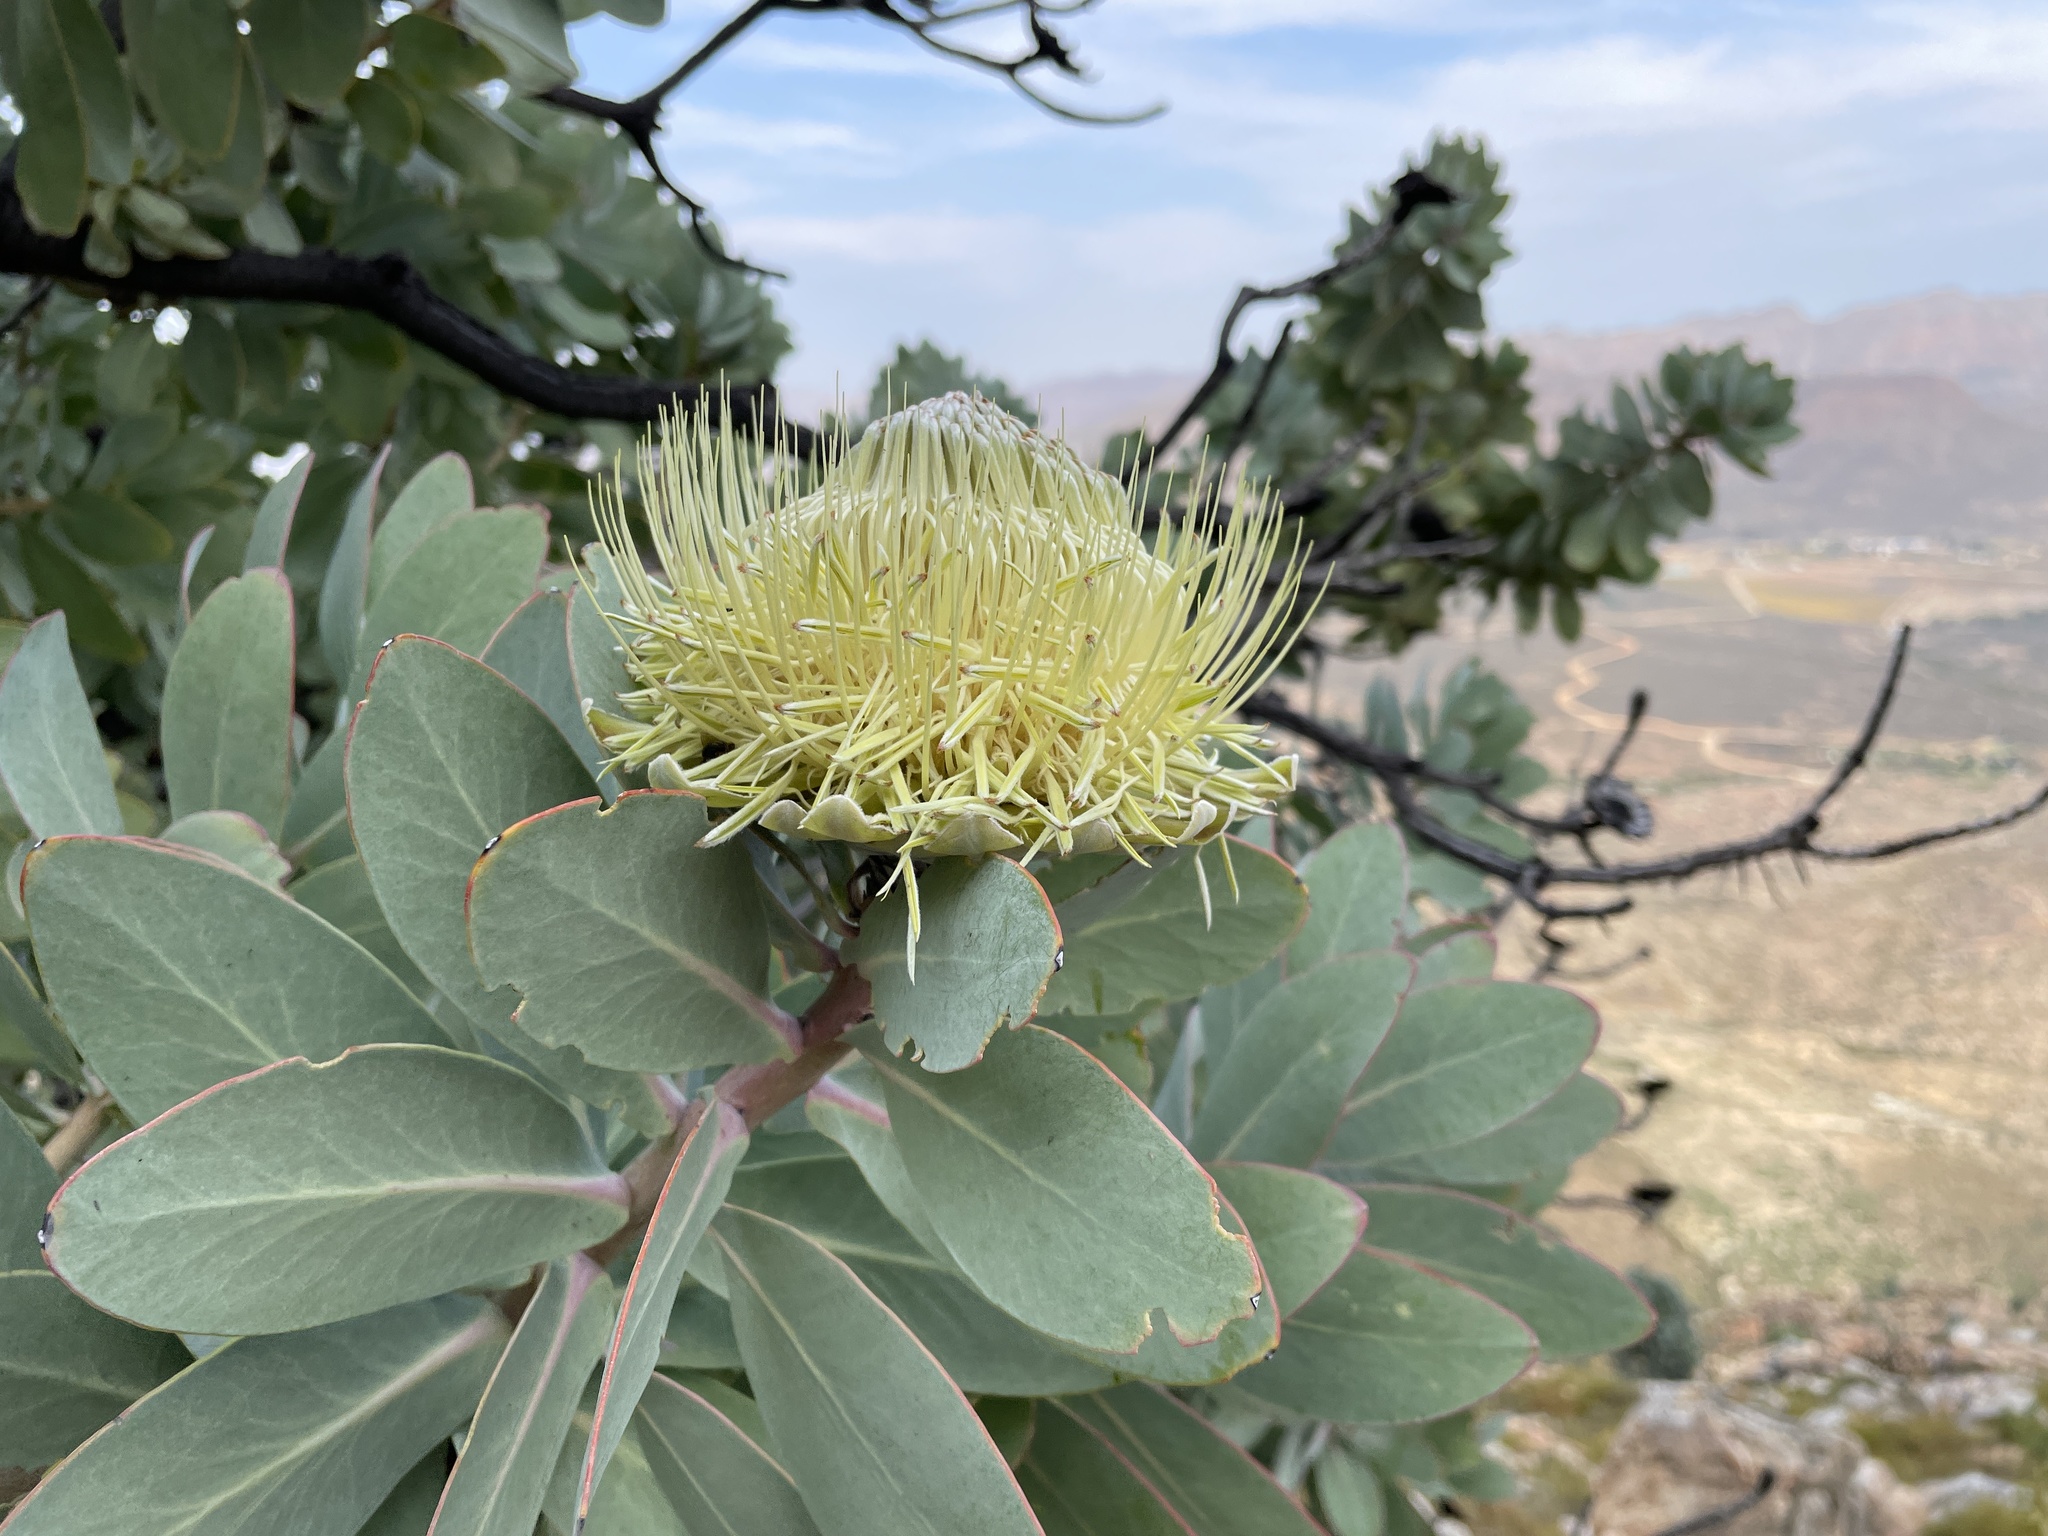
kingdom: Plantae
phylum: Tracheophyta
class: Magnoliopsida
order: Proteales
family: Proteaceae
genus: Protea
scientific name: Protea nitida
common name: Tree protea
